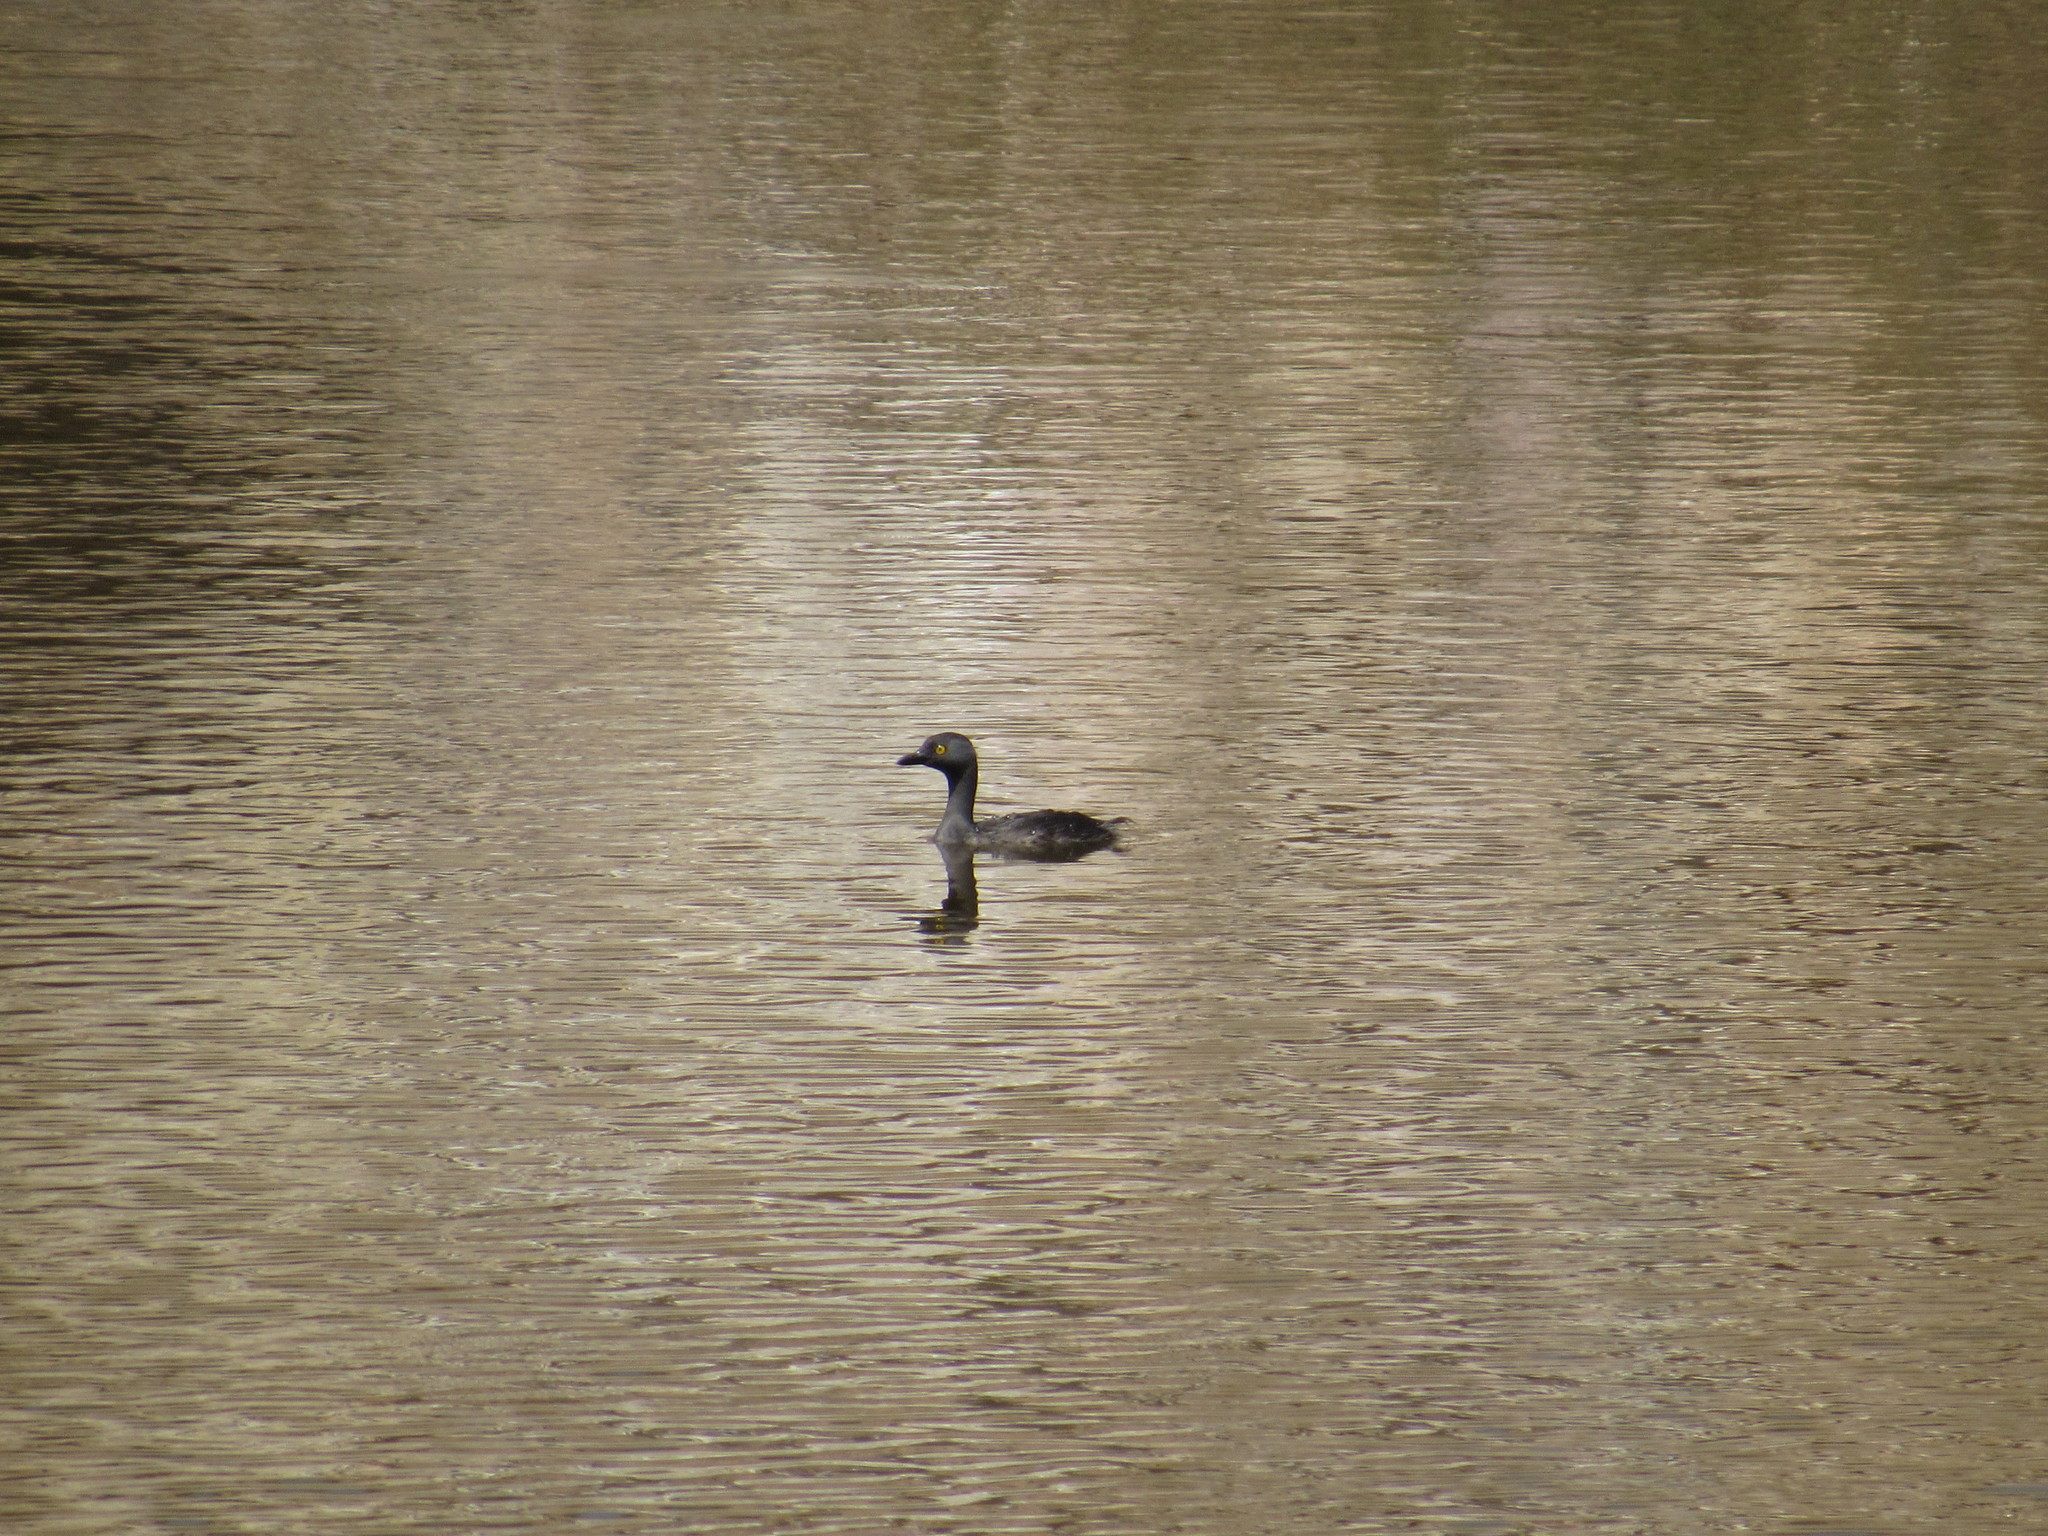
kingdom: Animalia
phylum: Chordata
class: Aves
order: Podicipediformes
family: Podicipedidae
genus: Tachybaptus
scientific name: Tachybaptus dominicus
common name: Least grebe
